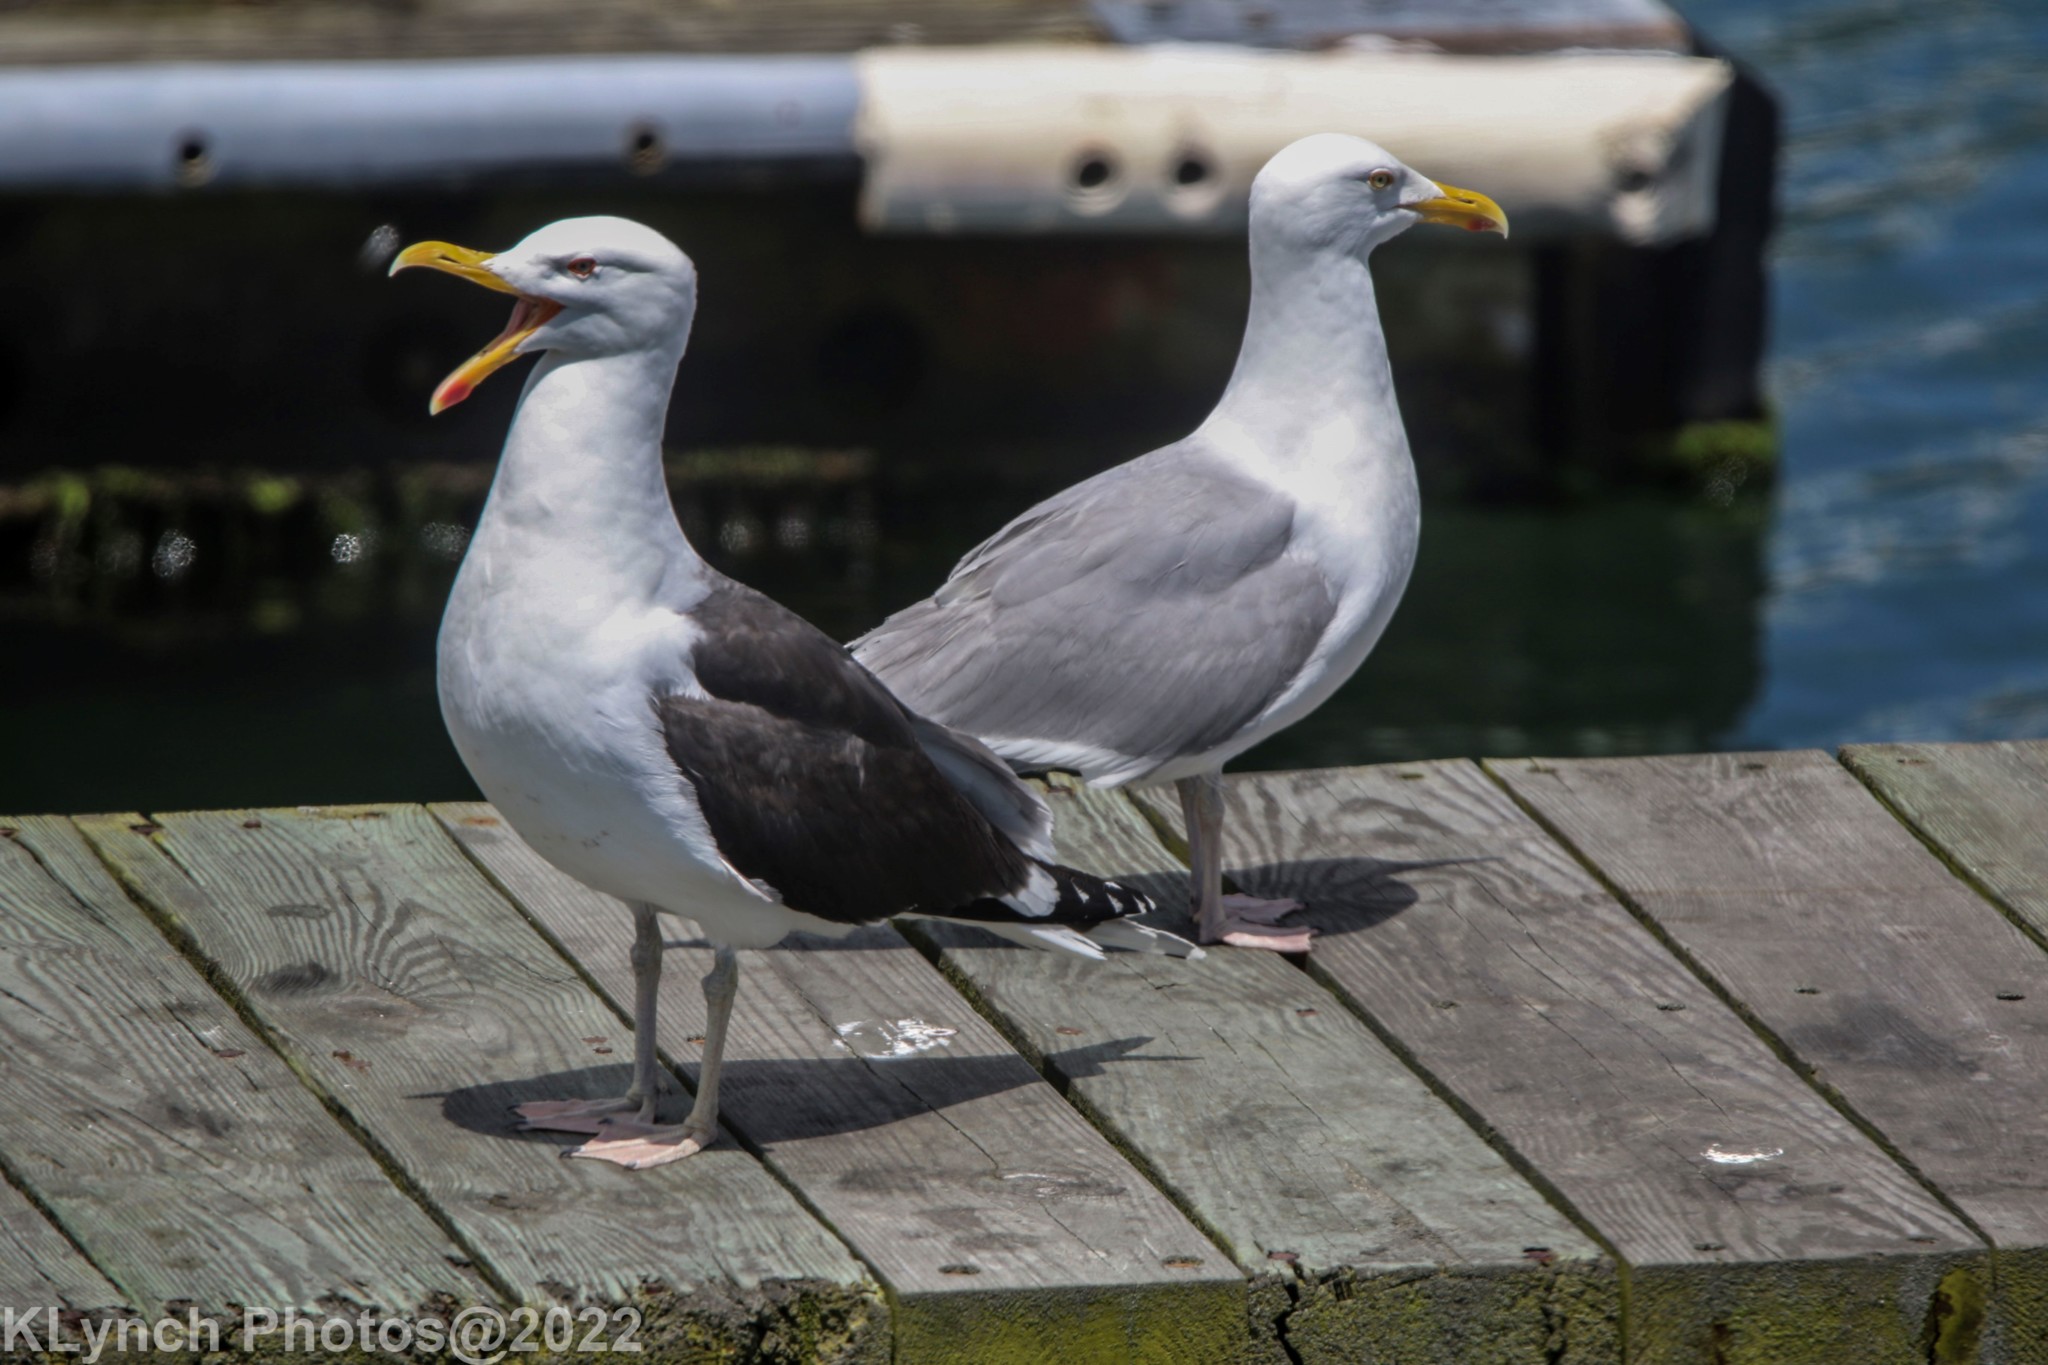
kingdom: Animalia
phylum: Chordata
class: Aves
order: Charadriiformes
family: Laridae
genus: Larus
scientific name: Larus marinus
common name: Great black-backed gull
